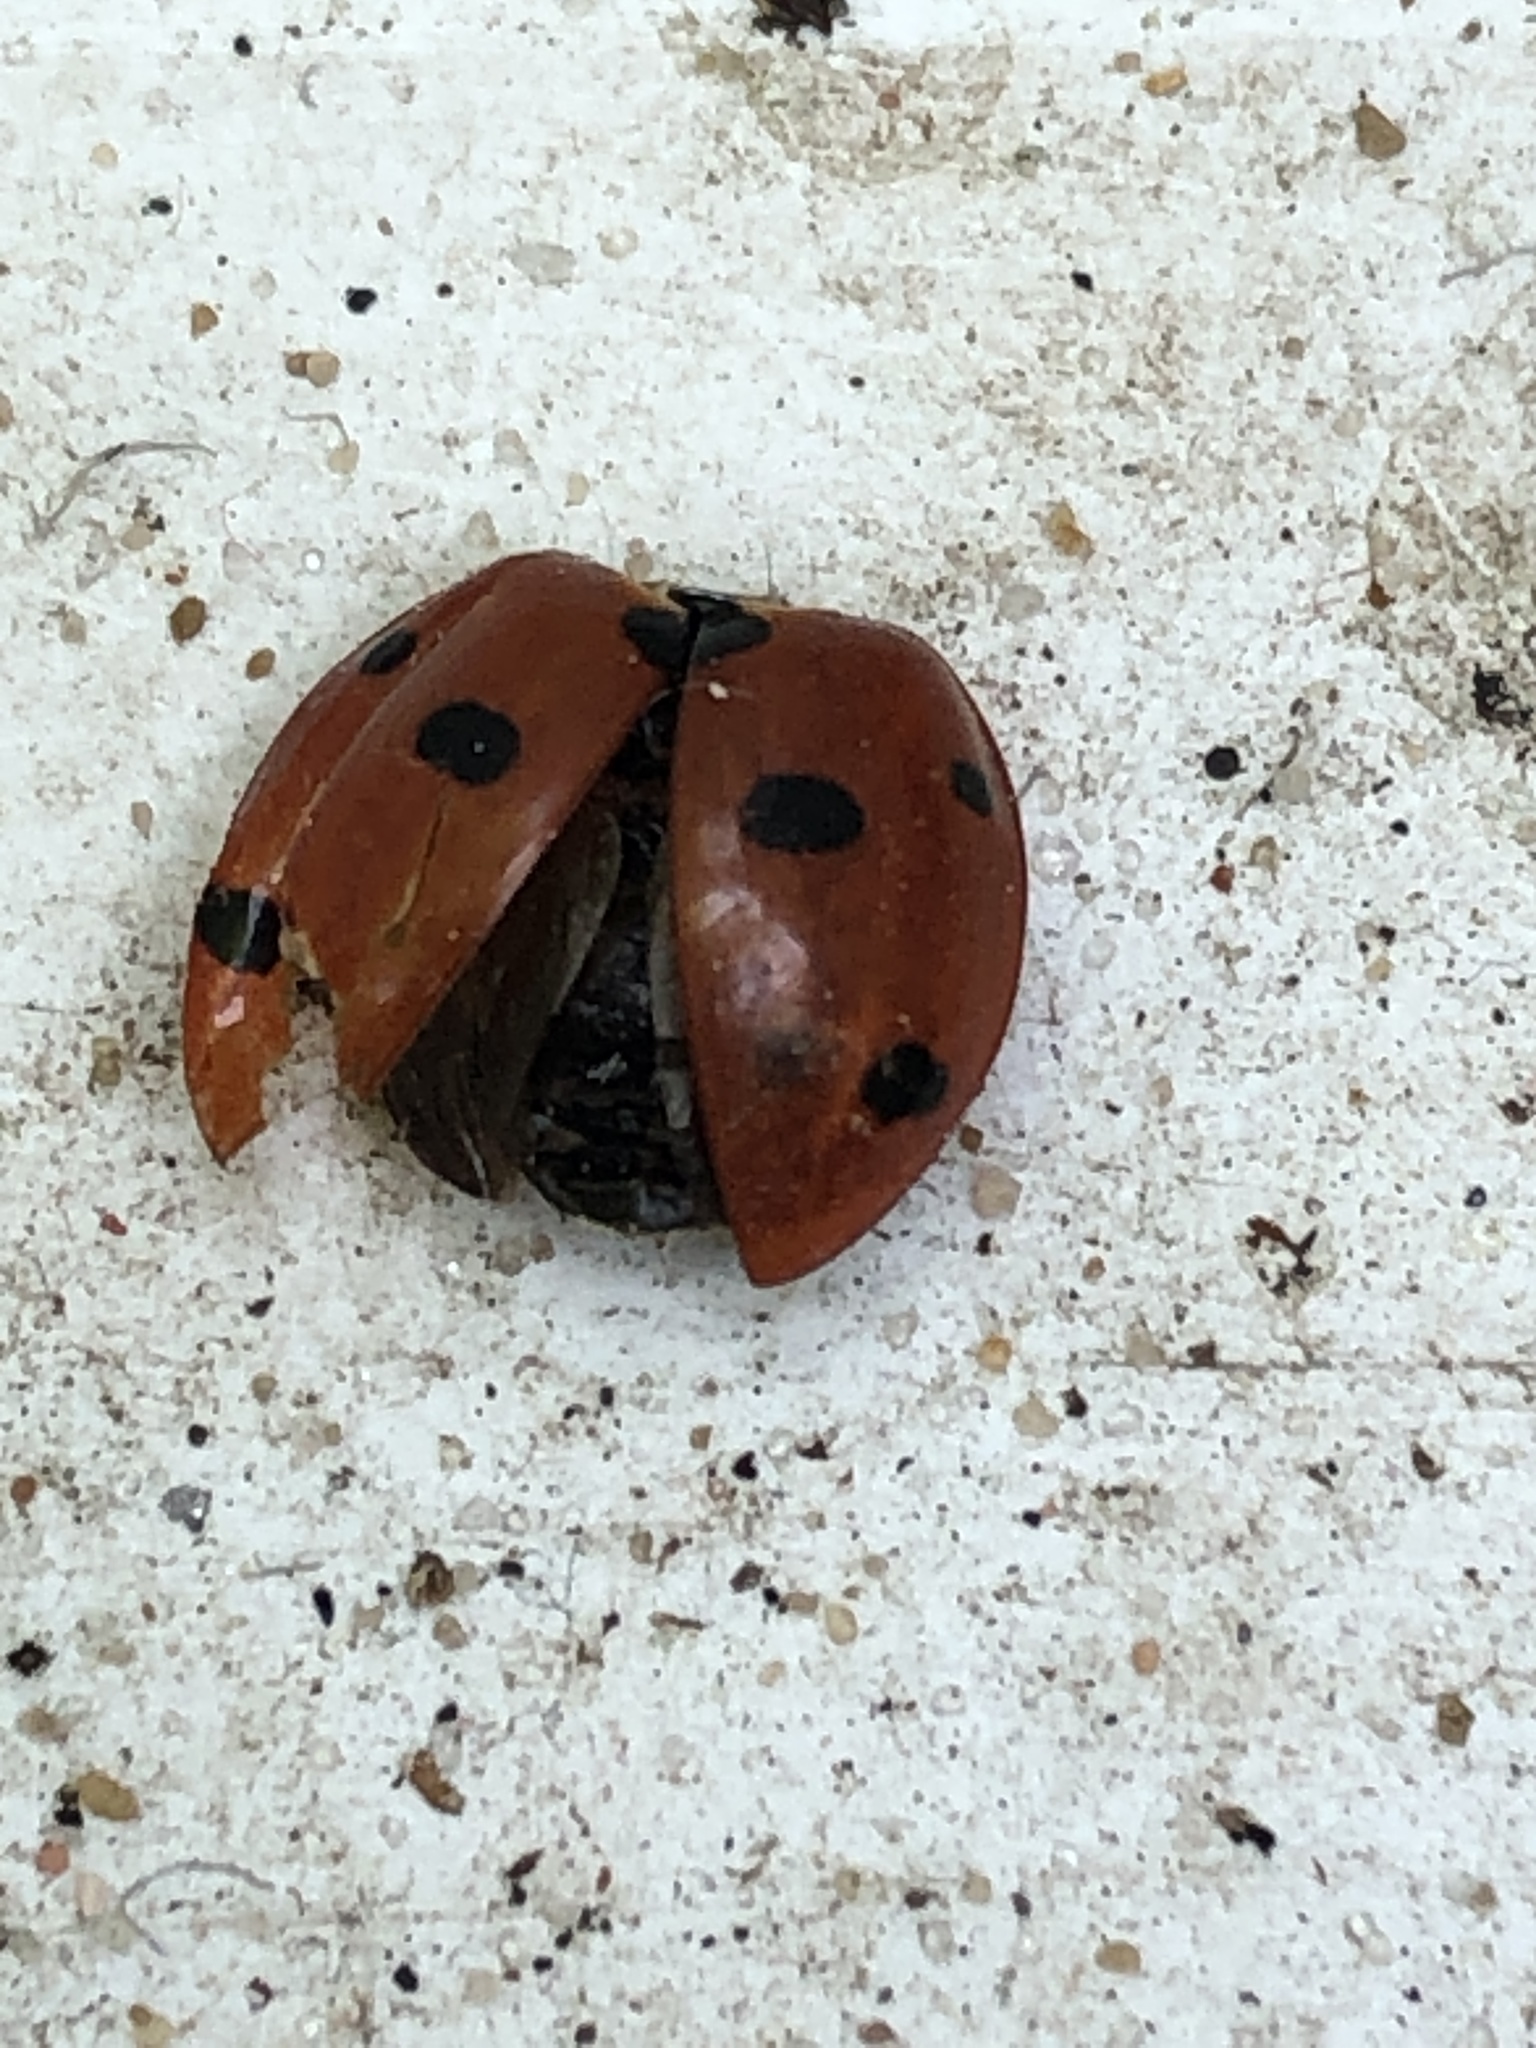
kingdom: Animalia
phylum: Arthropoda
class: Insecta
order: Coleoptera
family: Coccinellidae
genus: Coccinella
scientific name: Coccinella septempunctata
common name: Sevenspotted lady beetle
